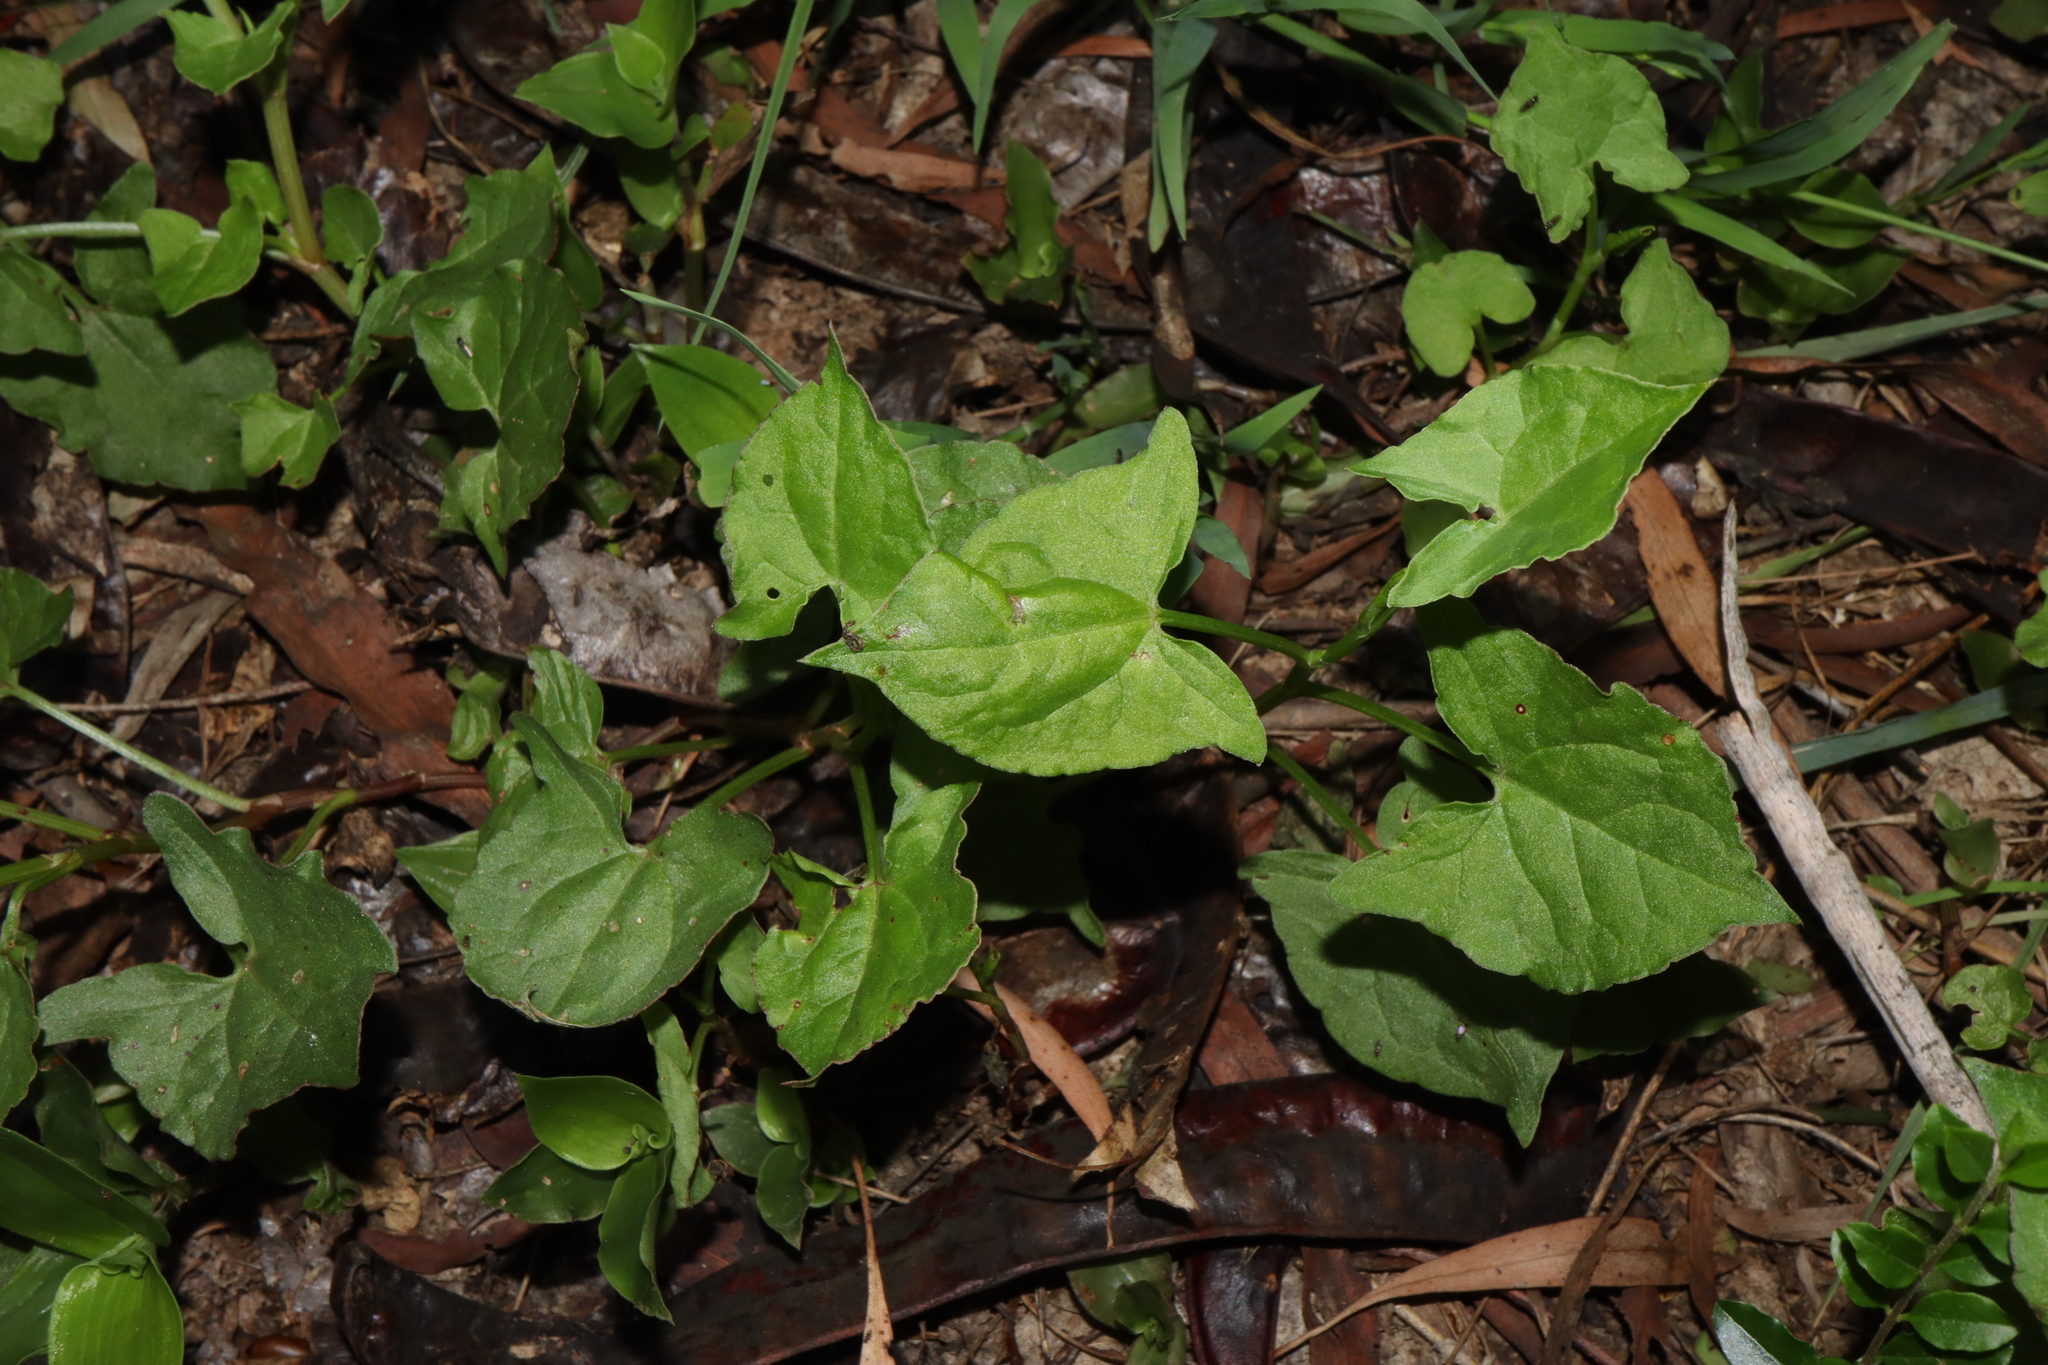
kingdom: Plantae
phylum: Tracheophyta
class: Magnoliopsida
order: Caryophyllales
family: Polygonaceae
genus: Rumex
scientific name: Rumex sagittatus
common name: Climbing dock
